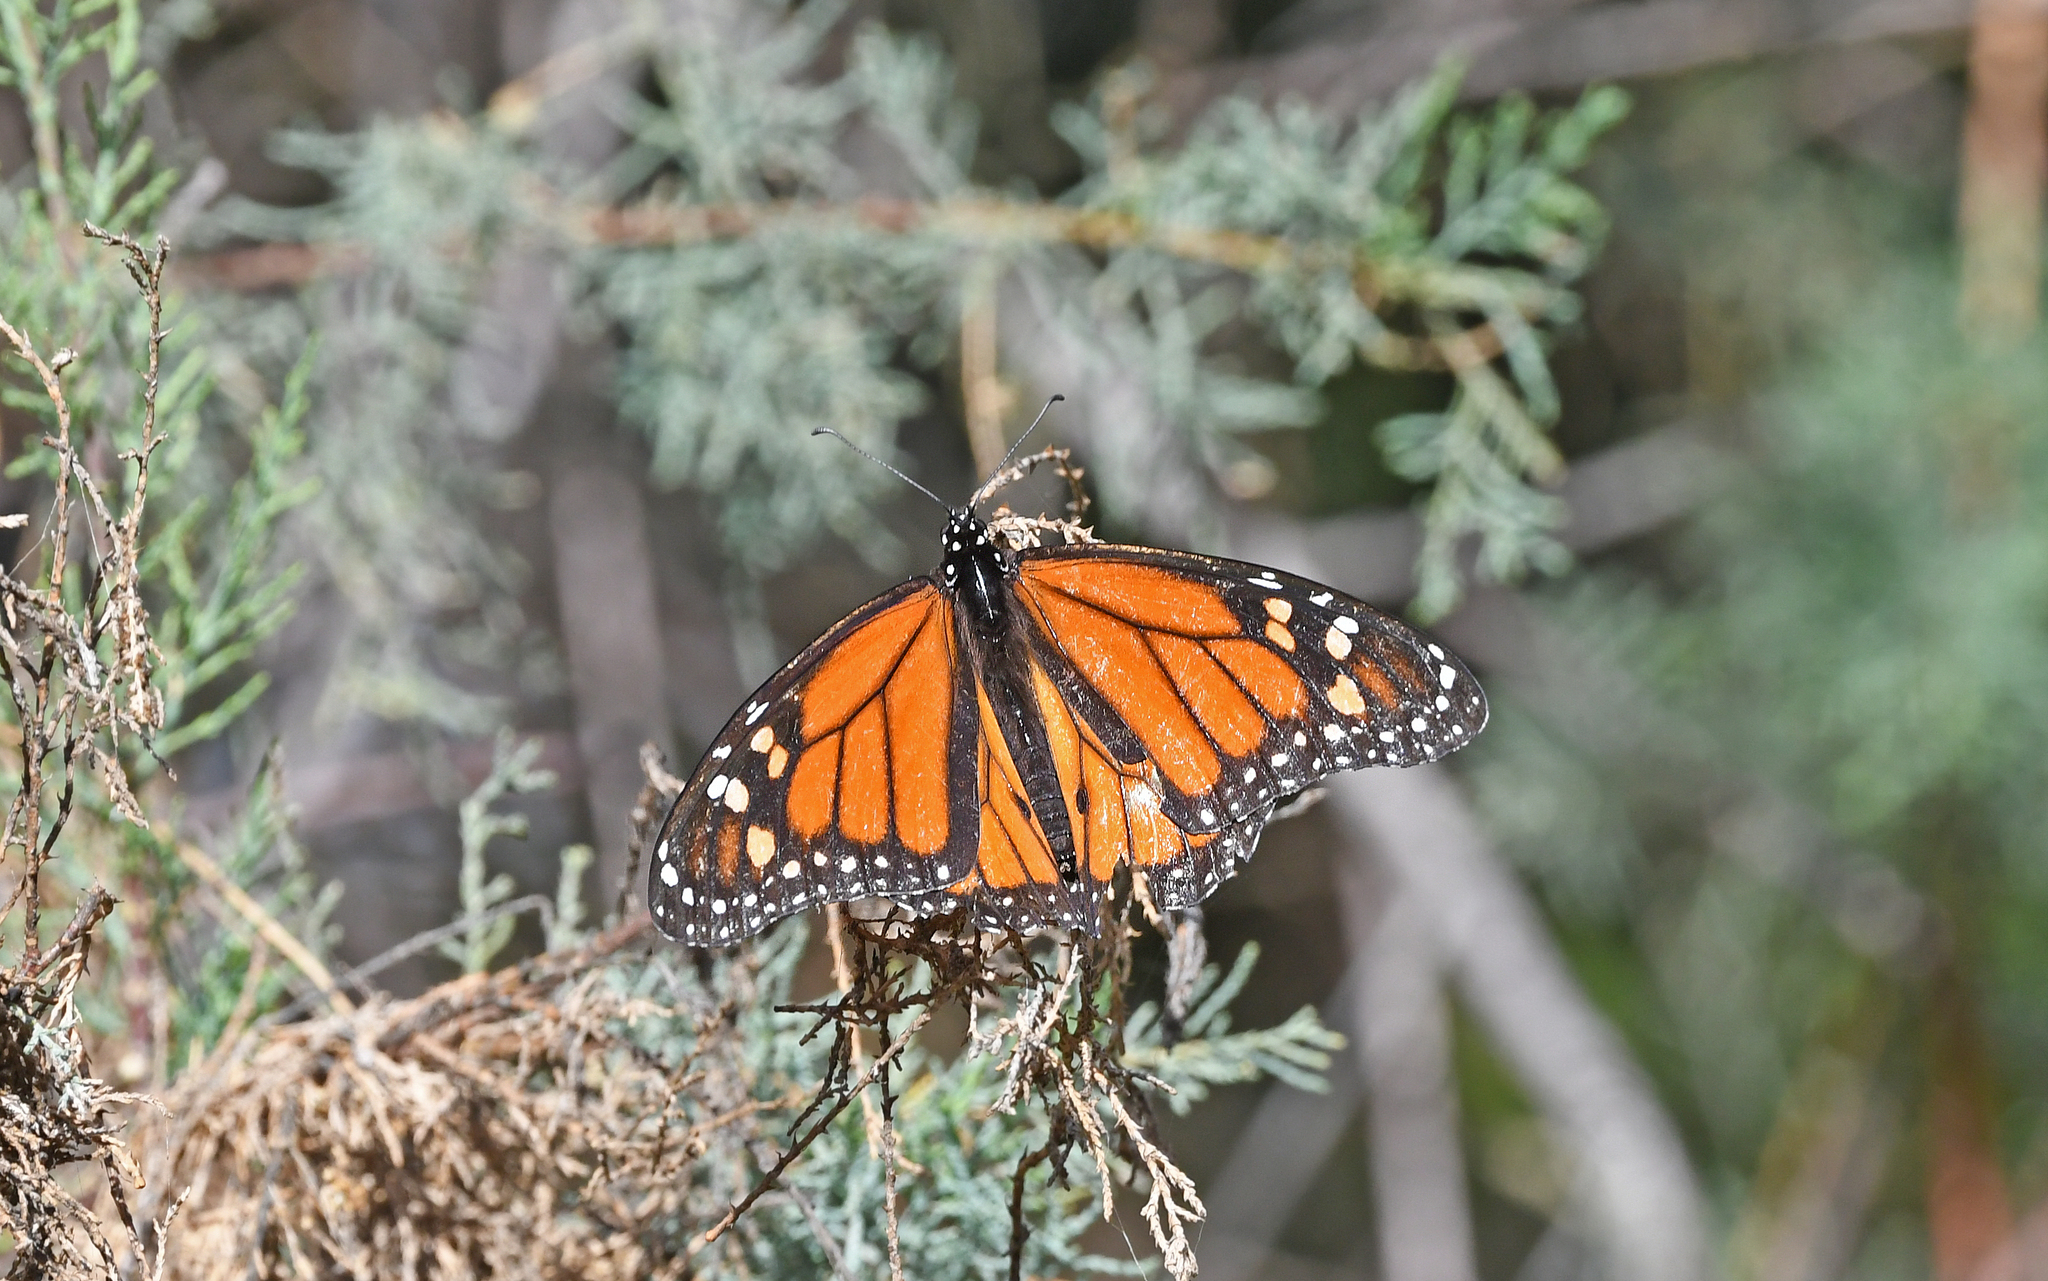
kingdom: Animalia
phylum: Arthropoda
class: Insecta
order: Lepidoptera
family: Nymphalidae
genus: Danaus
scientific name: Danaus plexippus
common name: Monarch
